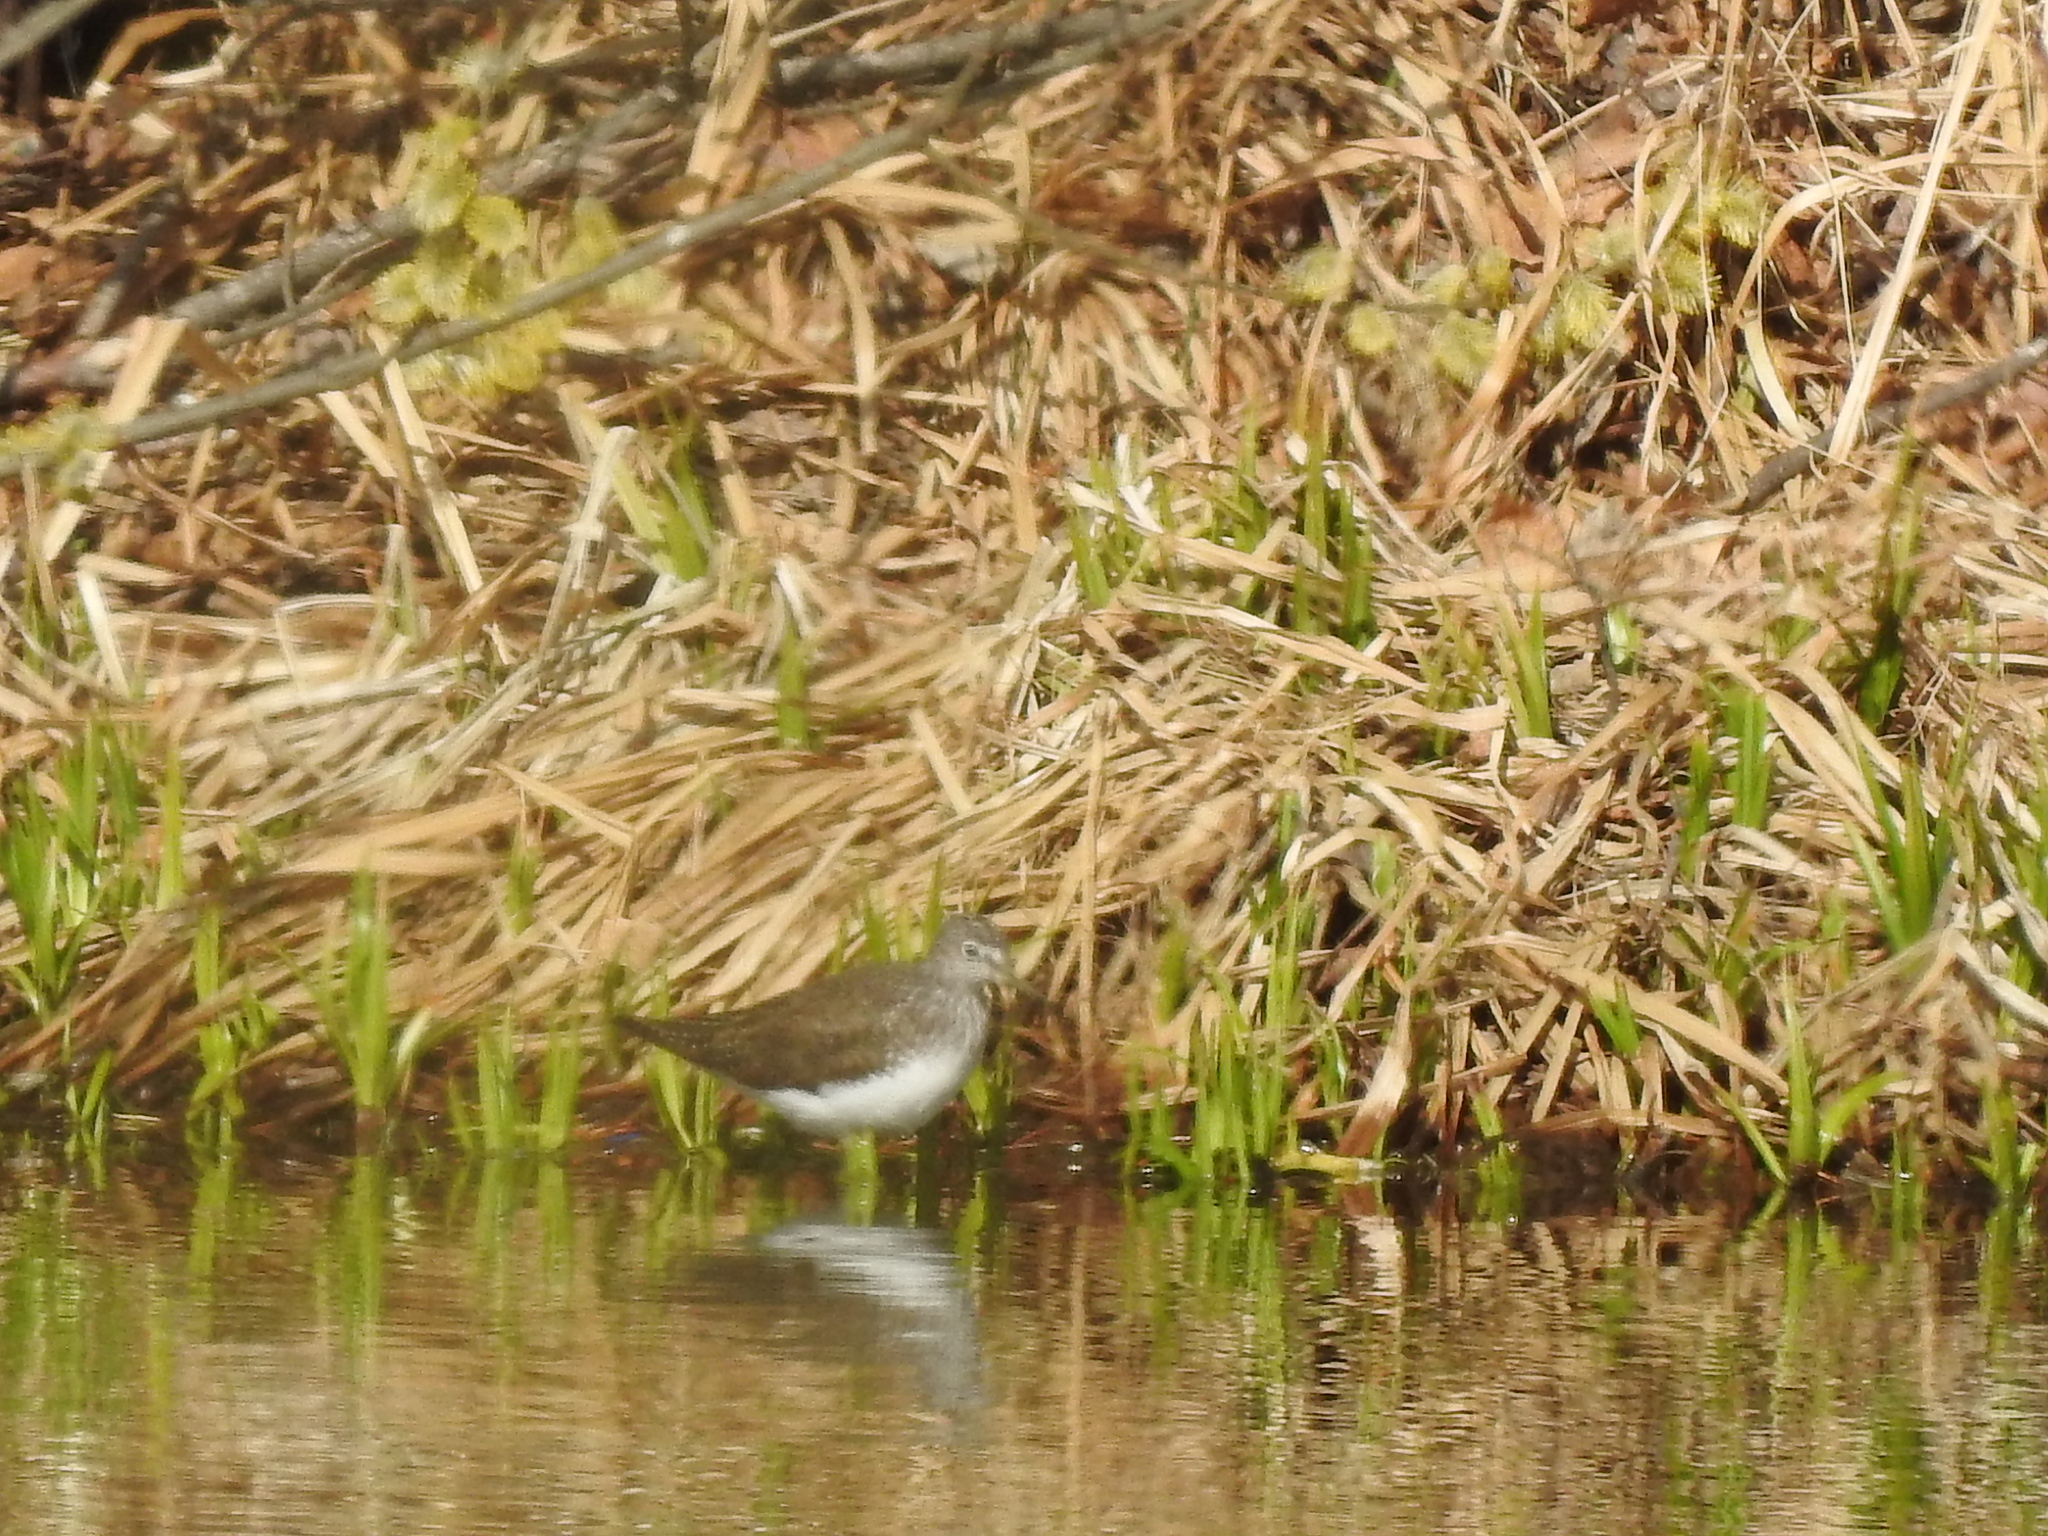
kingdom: Animalia
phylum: Chordata
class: Aves
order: Charadriiformes
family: Scolopacidae
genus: Tringa
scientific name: Tringa ochropus
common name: Green sandpiper
